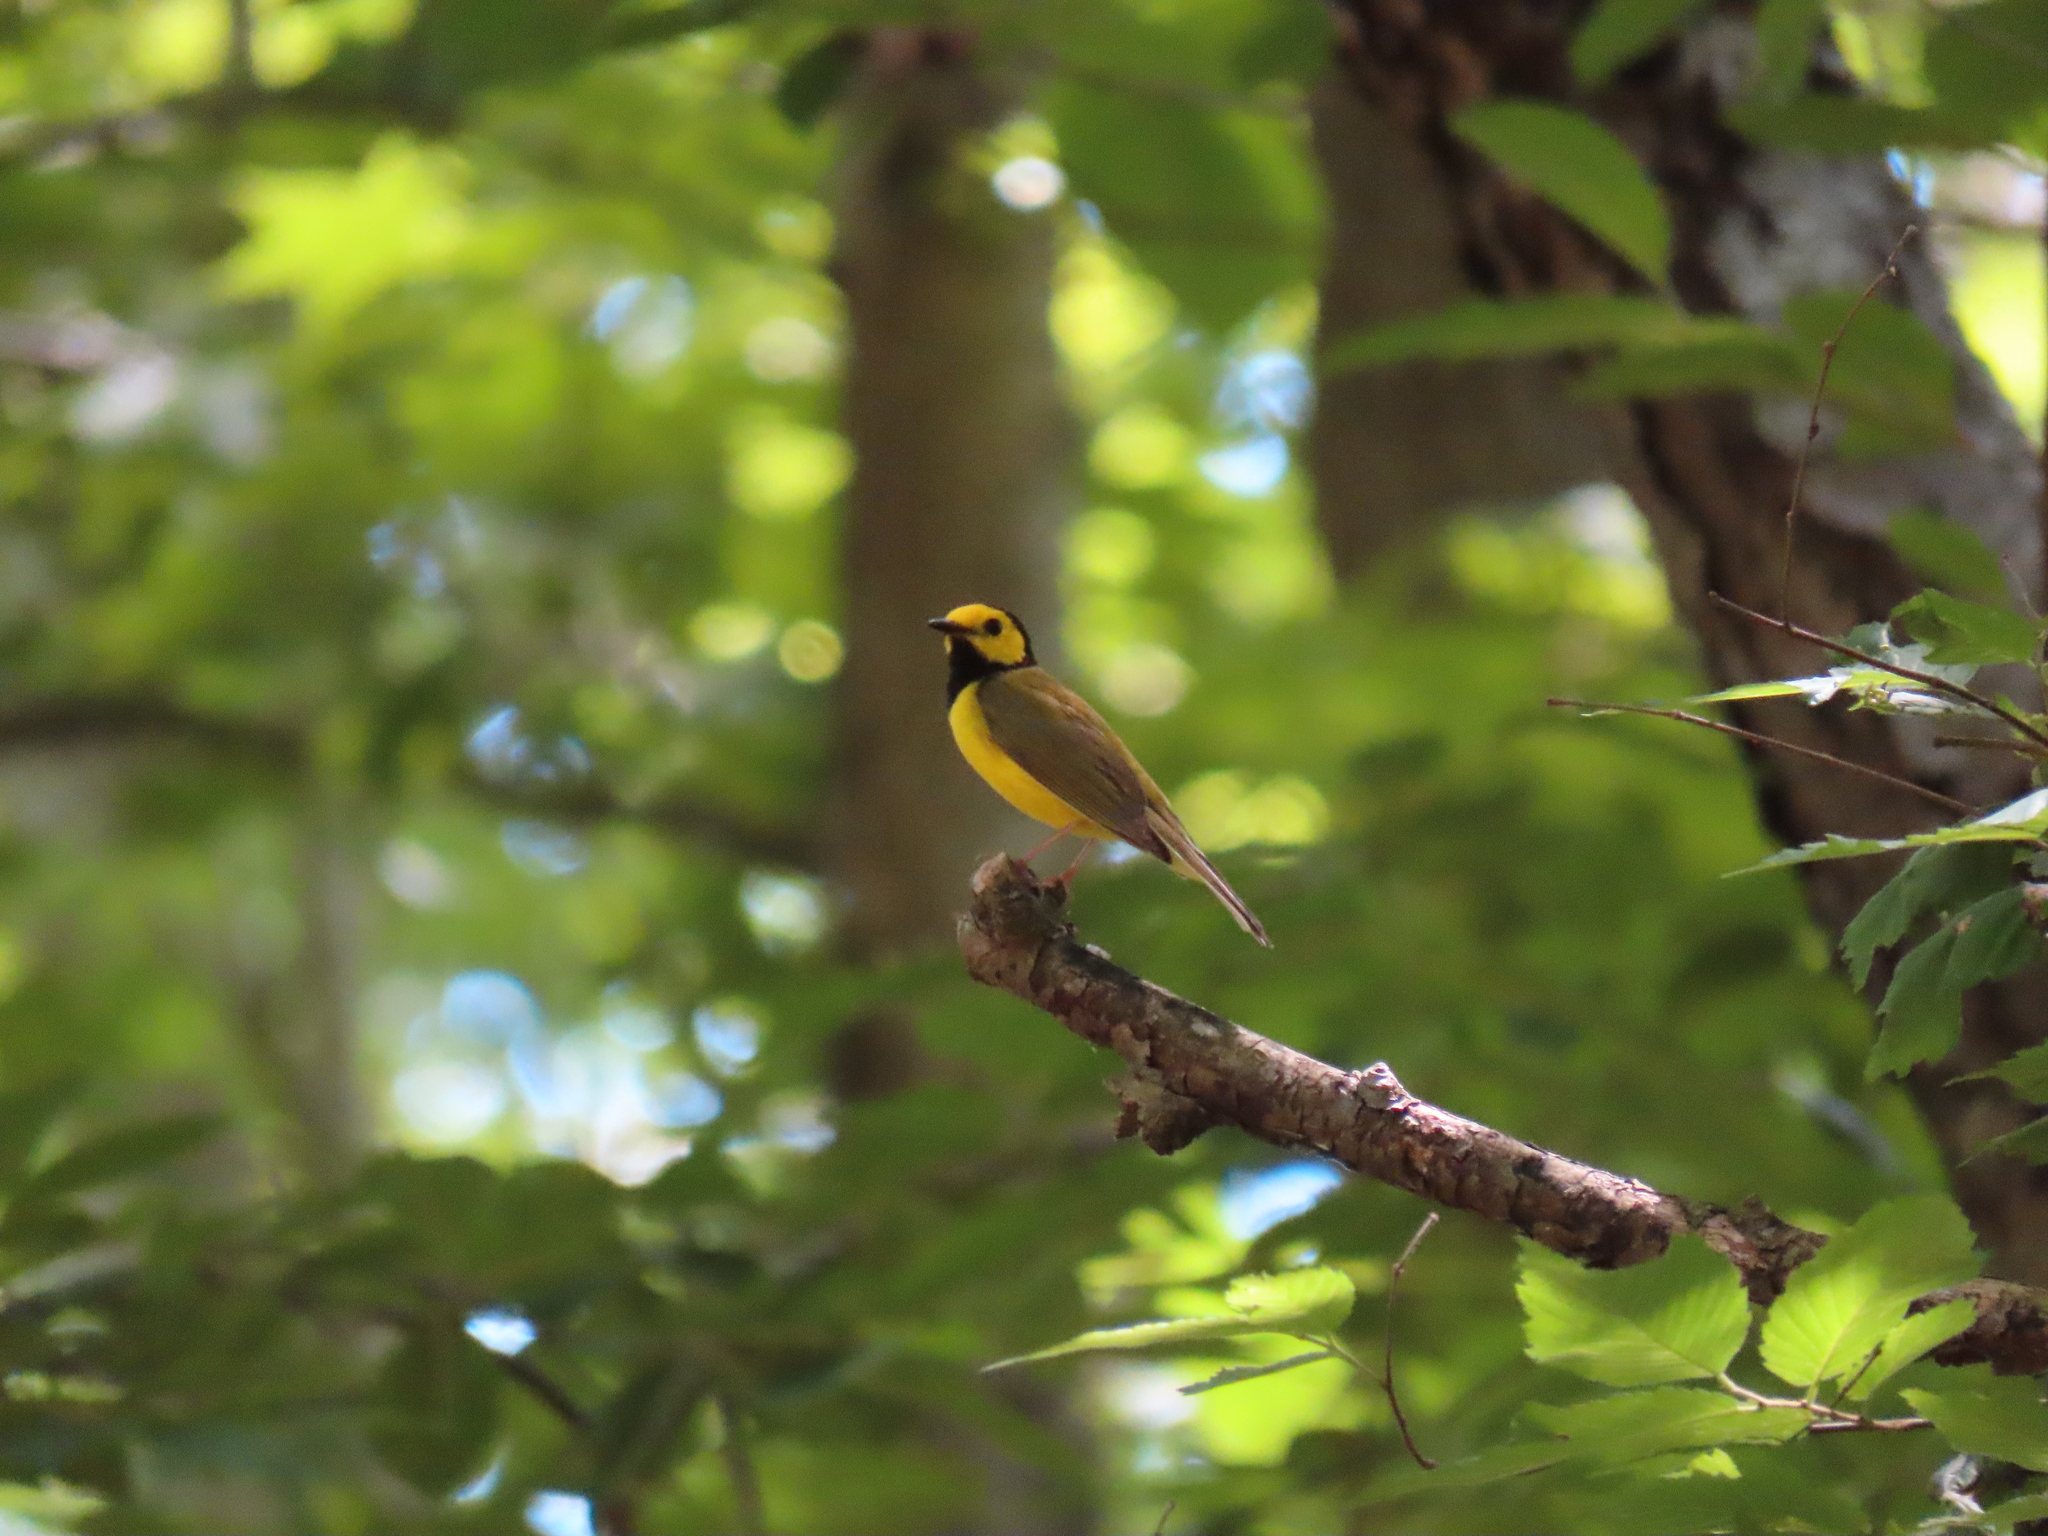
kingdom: Animalia
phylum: Chordata
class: Aves
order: Passeriformes
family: Parulidae
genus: Setophaga
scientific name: Setophaga citrina
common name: Hooded warbler
